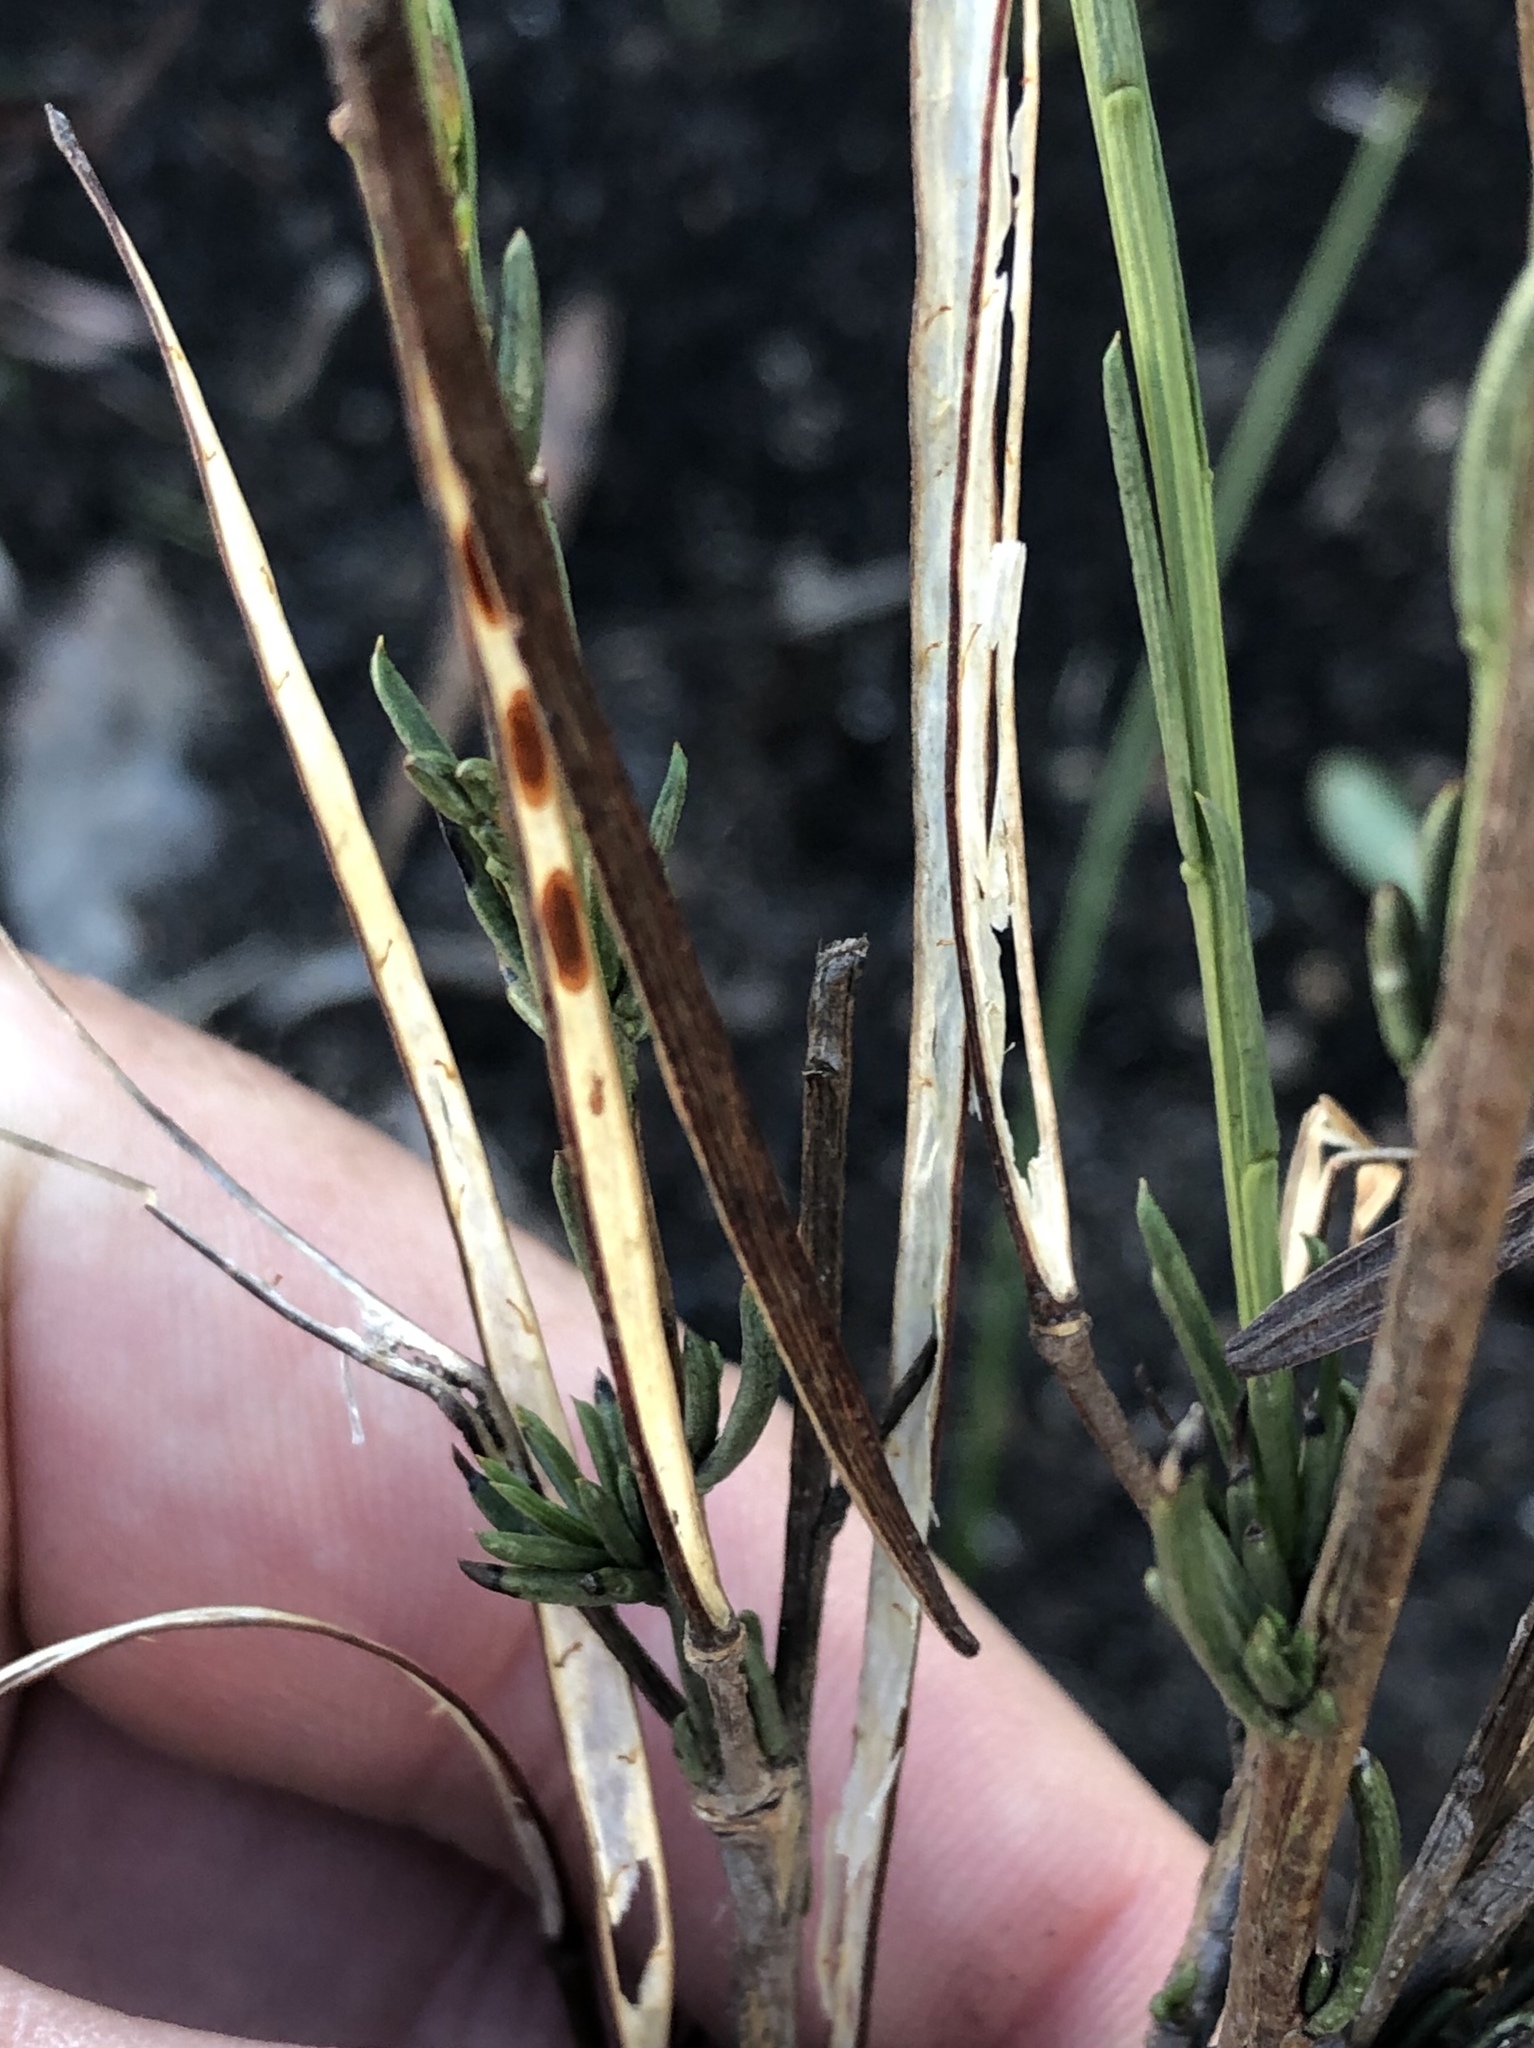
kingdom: Plantae
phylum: Tracheophyta
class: Magnoliopsida
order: Brassicales
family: Brassicaceae
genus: Heliophila
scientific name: Heliophila scoparia
